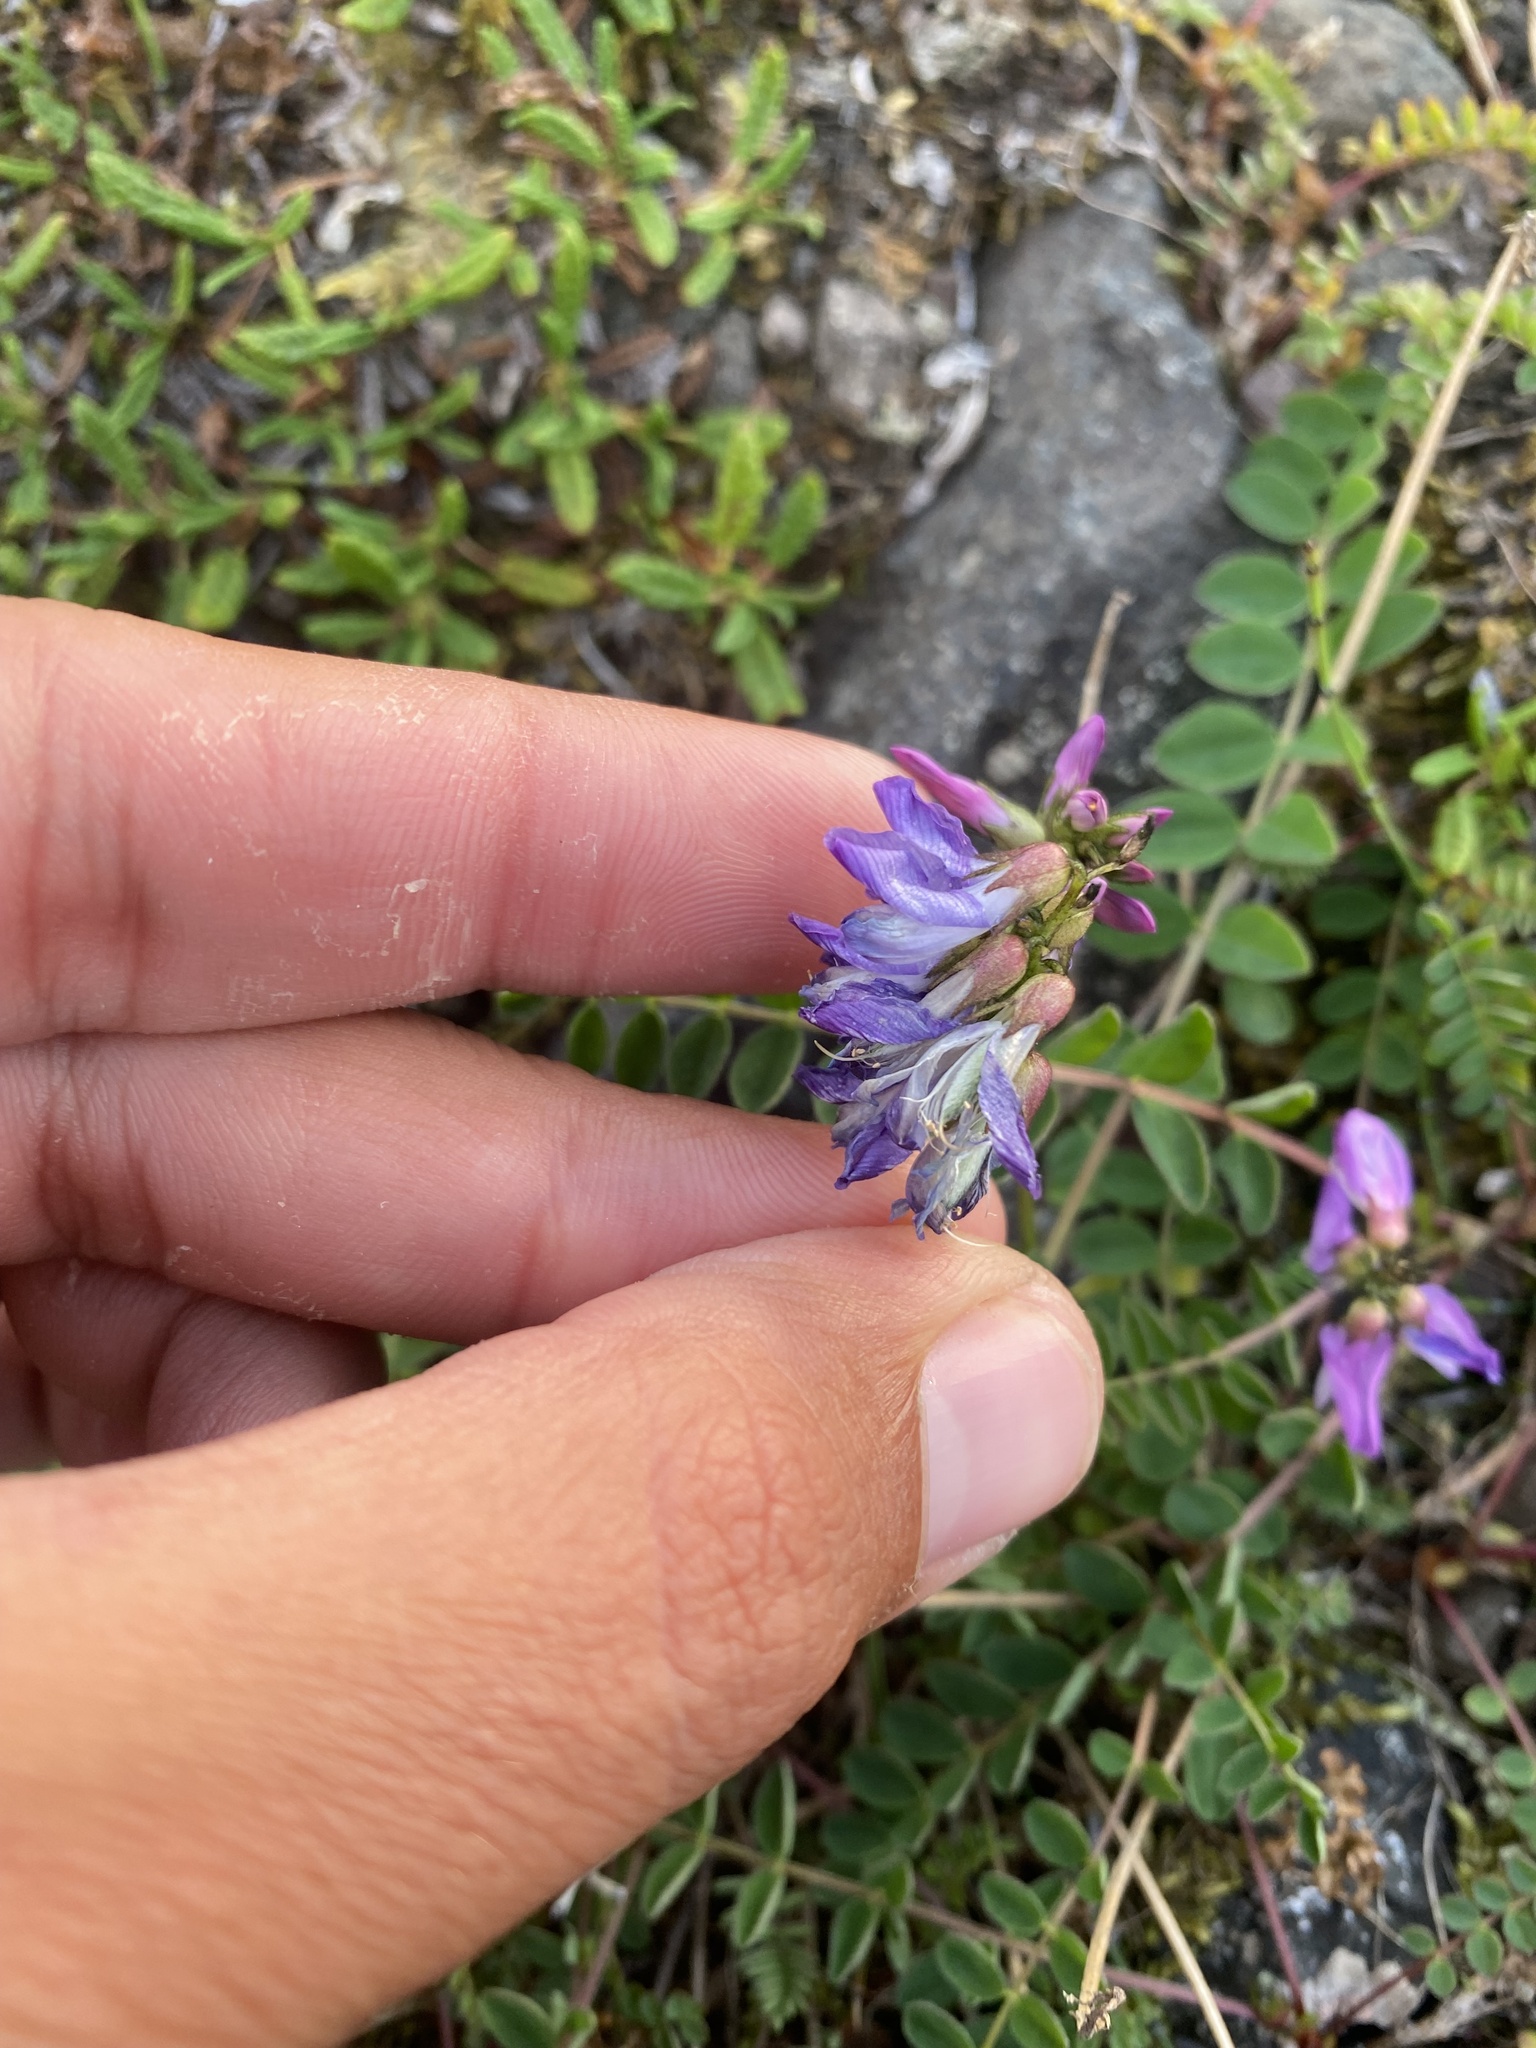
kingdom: Plantae
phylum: Tracheophyta
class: Magnoliopsida
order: Fabales
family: Fabaceae
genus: Astragalus
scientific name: Astragalus alpinus
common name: Alpine milk-vetch
